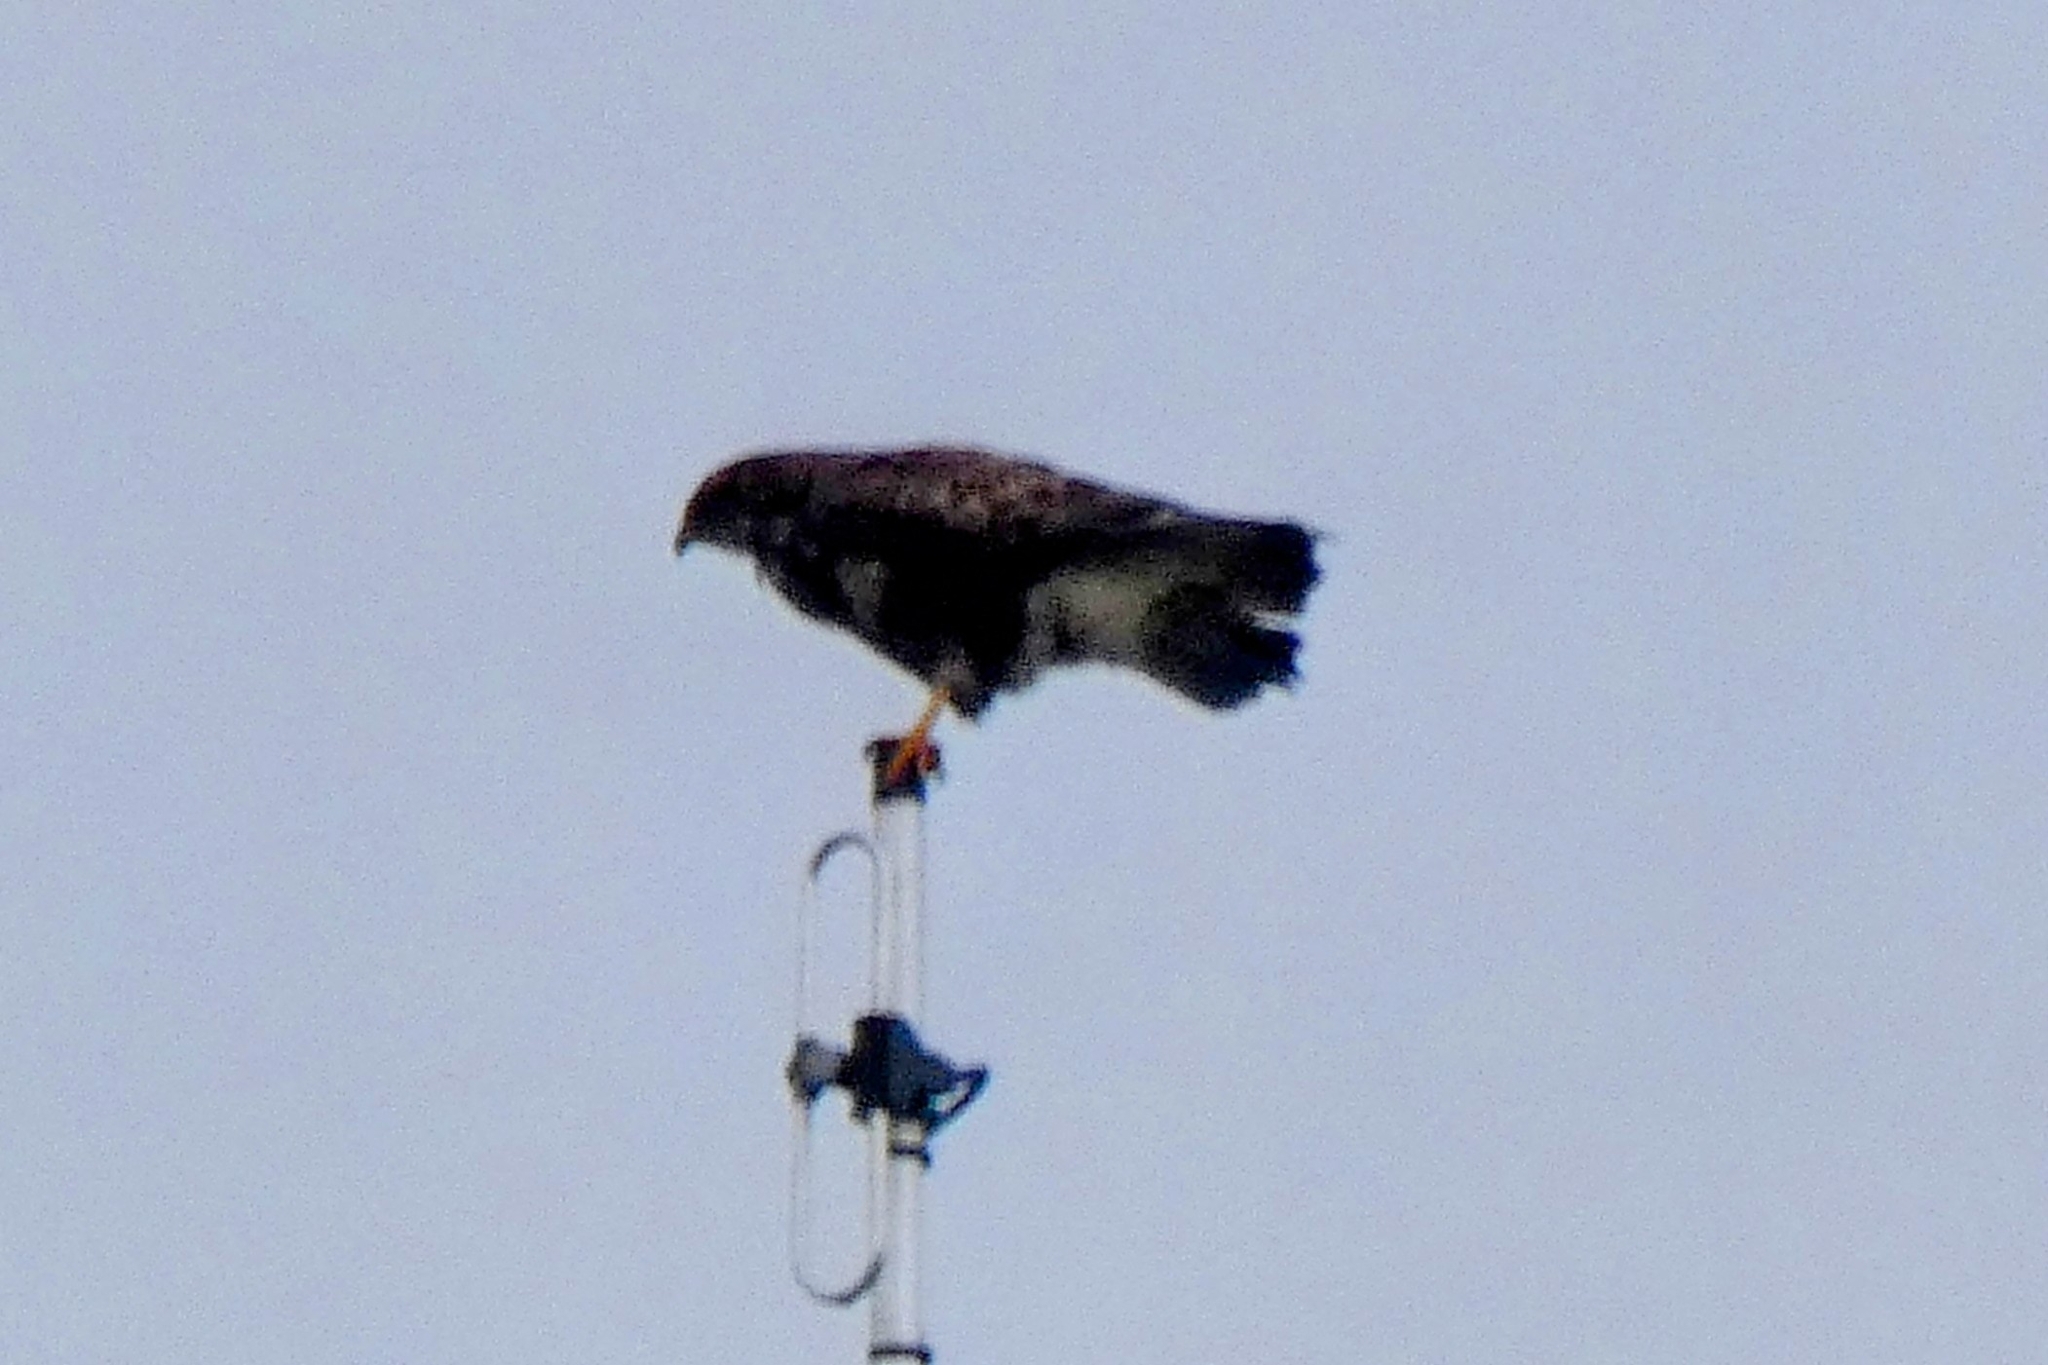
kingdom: Animalia
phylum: Chordata
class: Aves
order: Accipitriformes
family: Accipitridae
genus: Buteo
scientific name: Buteo buteo
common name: Common buzzard
